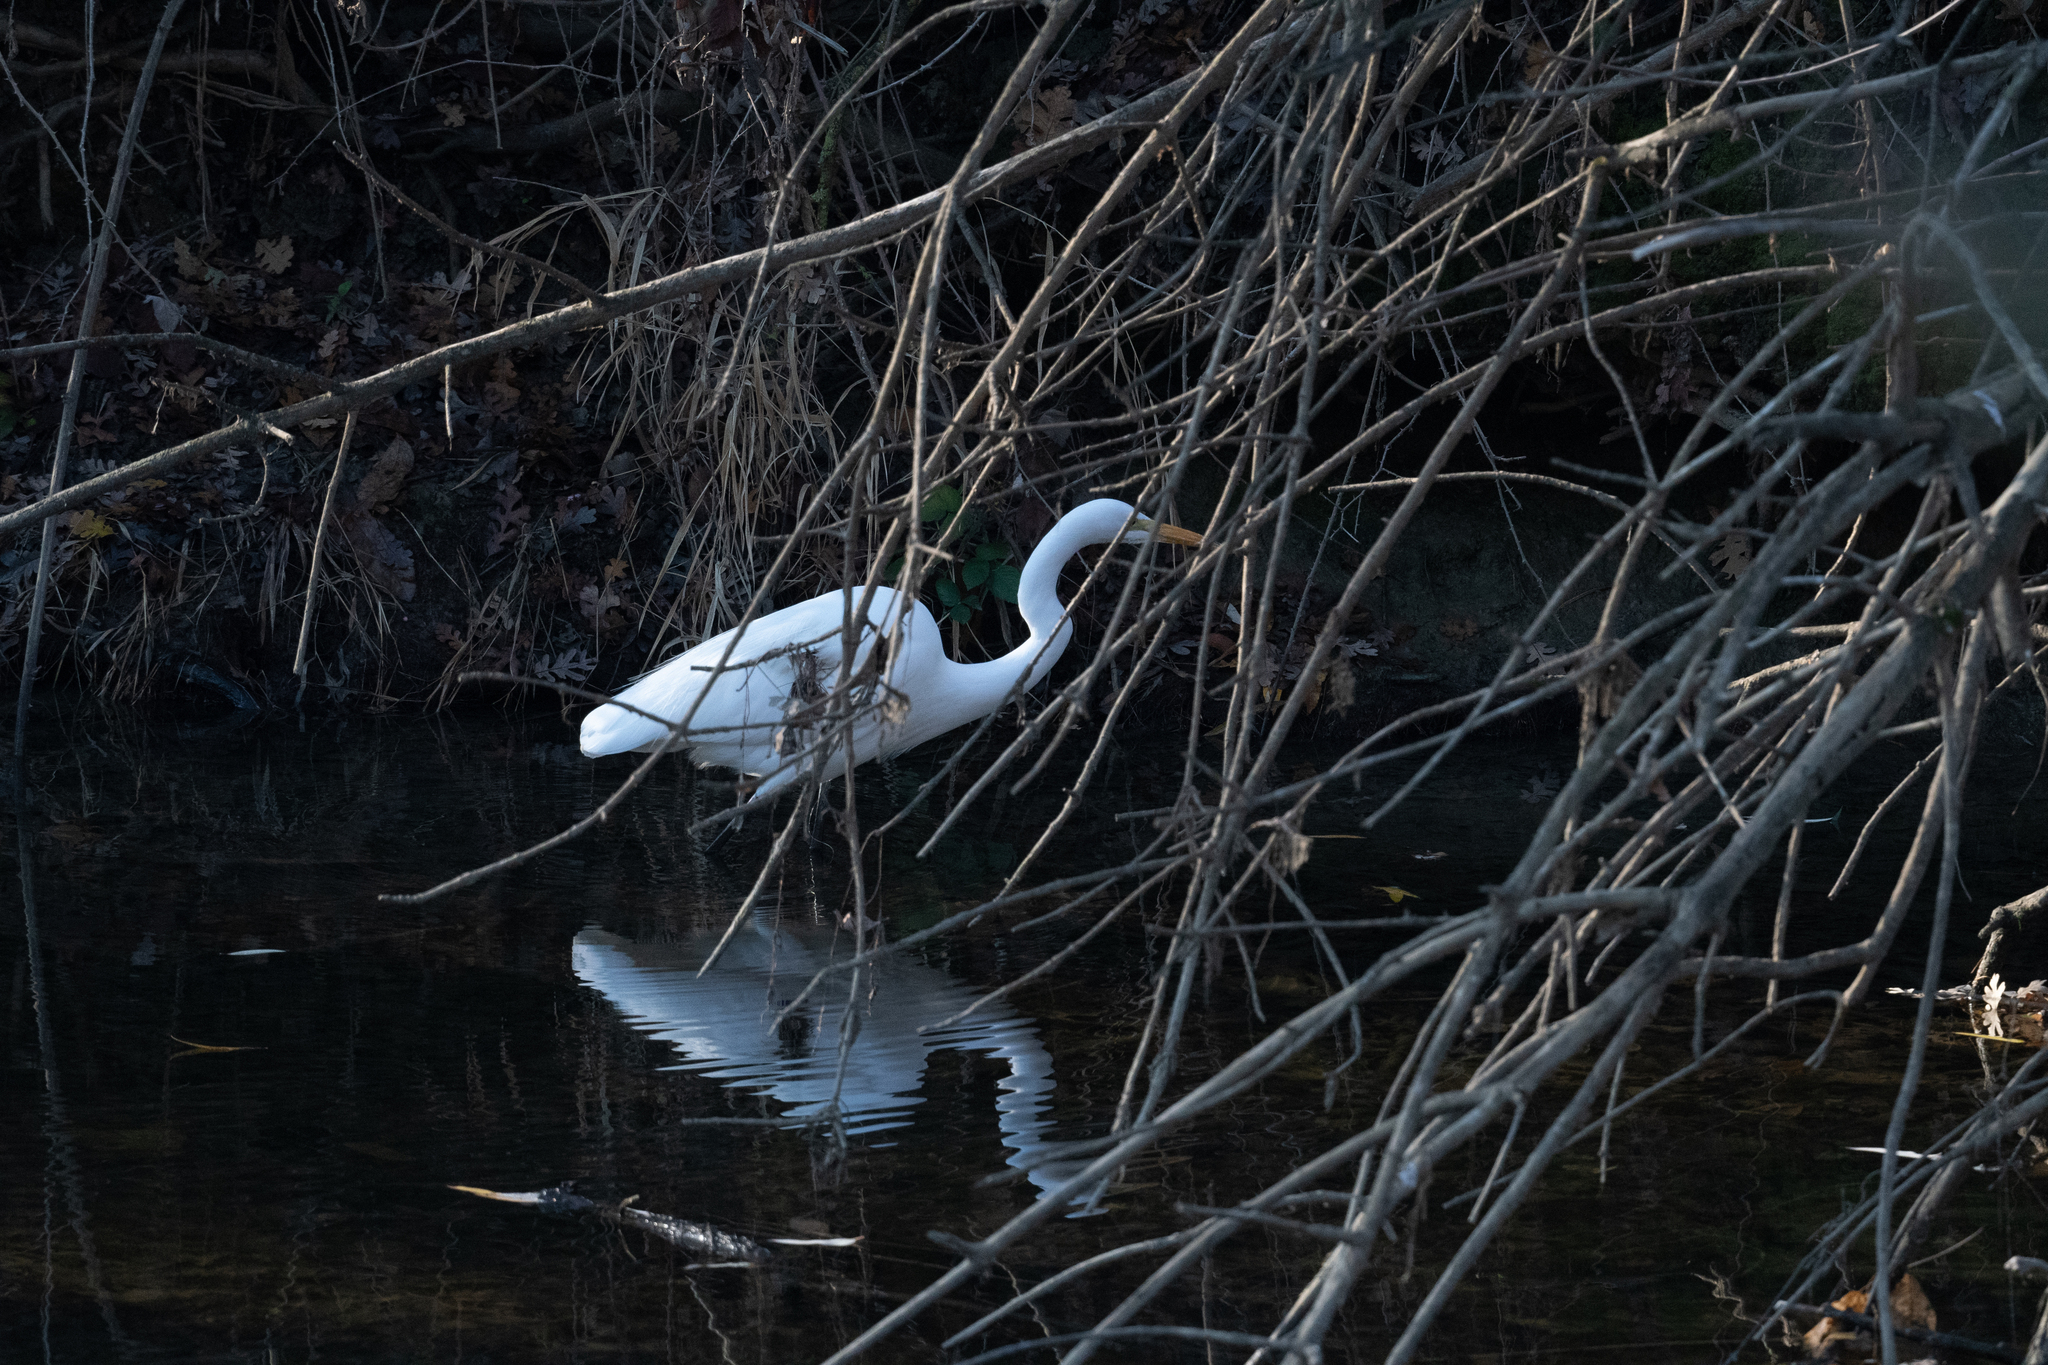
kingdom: Animalia
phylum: Chordata
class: Aves
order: Pelecaniformes
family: Ardeidae
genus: Ardea
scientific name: Ardea alba
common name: Great egret
